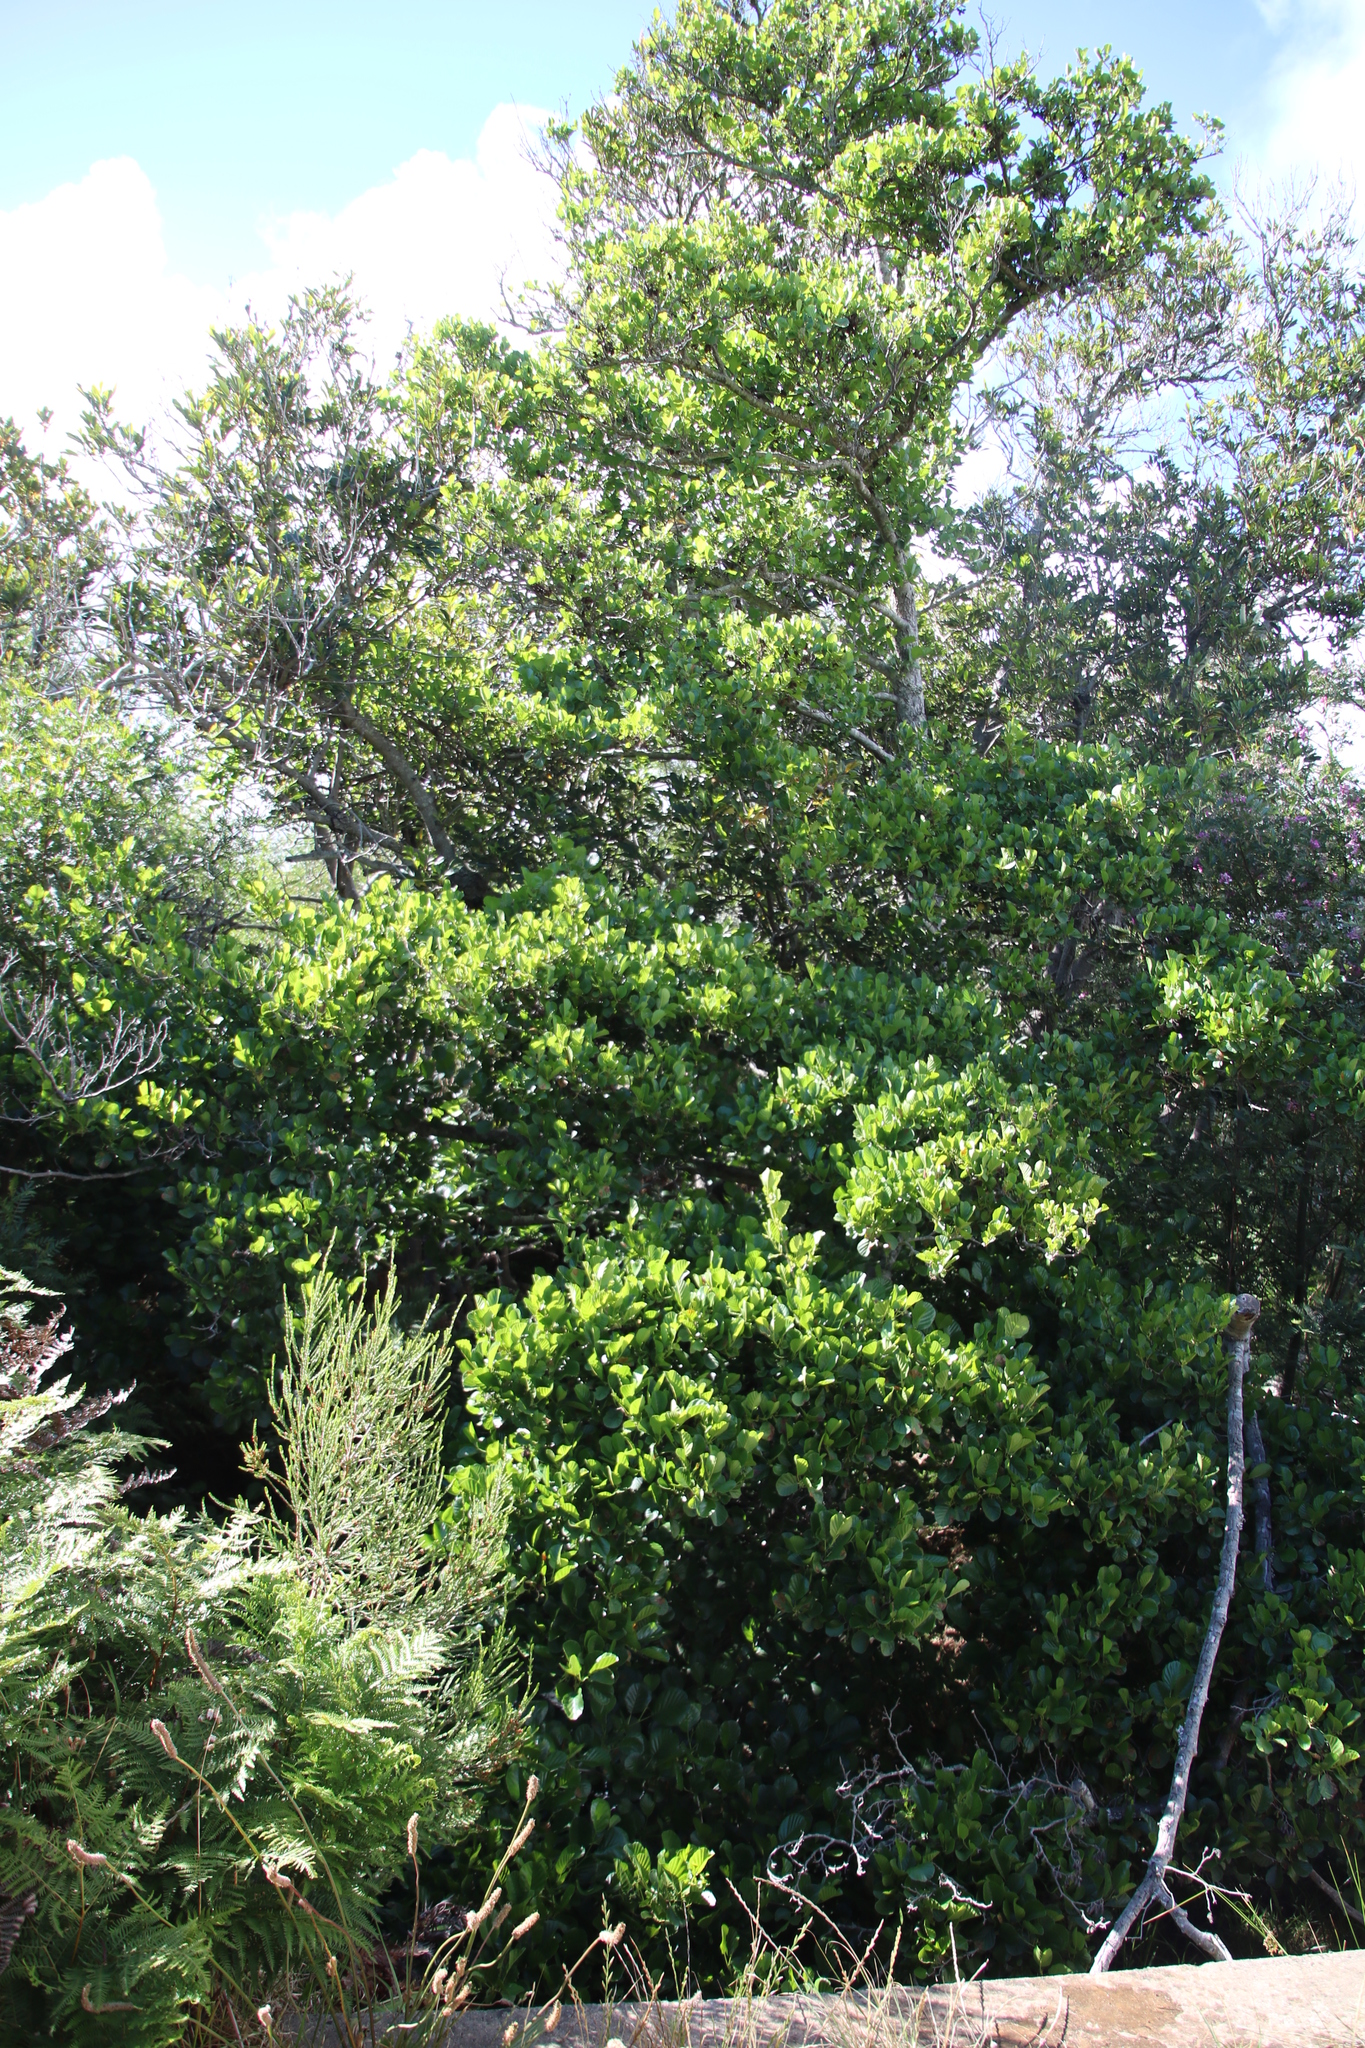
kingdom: Plantae
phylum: Tracheophyta
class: Magnoliopsida
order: Fagales
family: Betulaceae
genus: Alnus
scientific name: Alnus glutinosa
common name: Black alder
